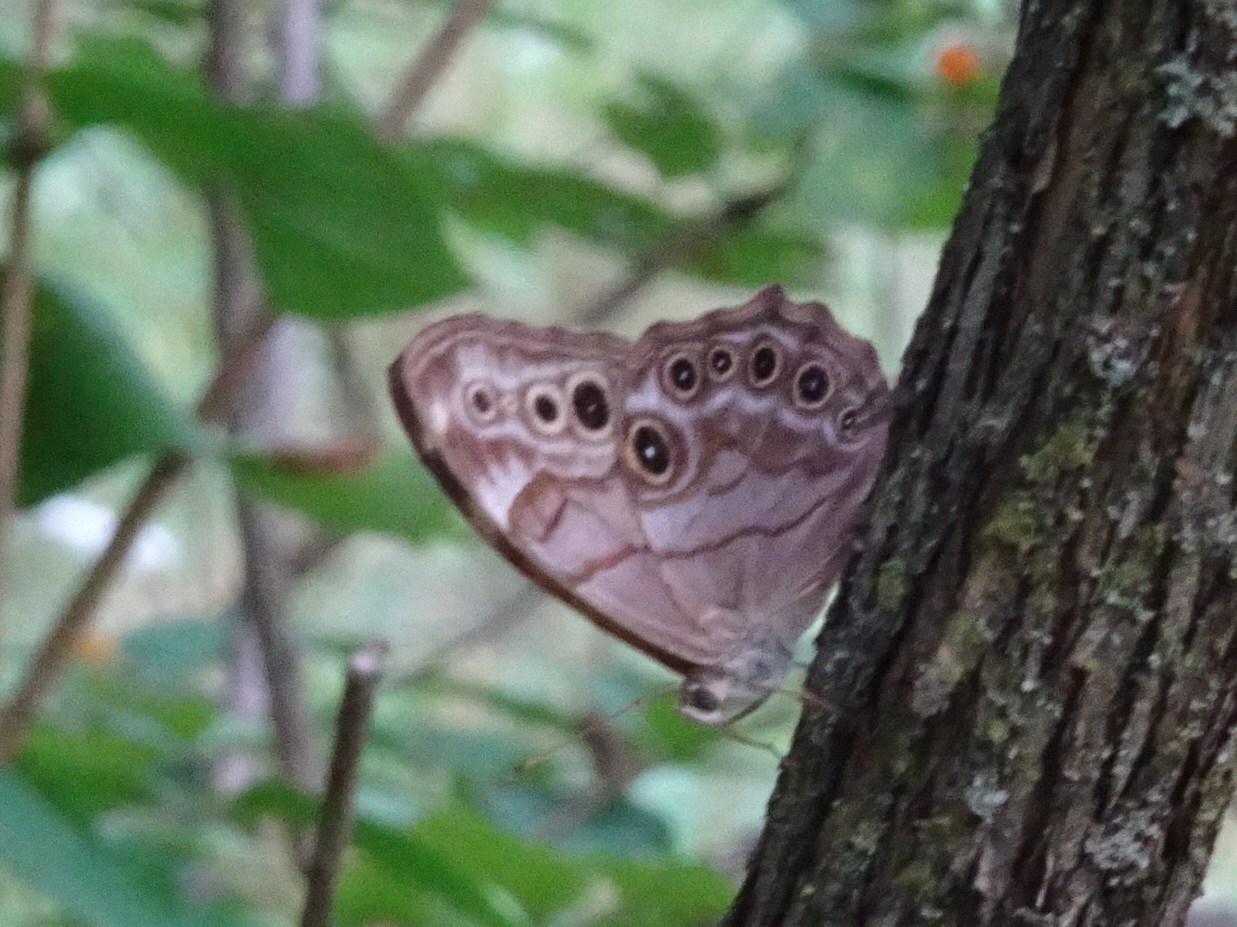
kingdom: Animalia
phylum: Arthropoda
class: Insecta
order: Lepidoptera
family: Nymphalidae
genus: Lethe
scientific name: Lethe anthedon
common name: Northern pearly-eye
